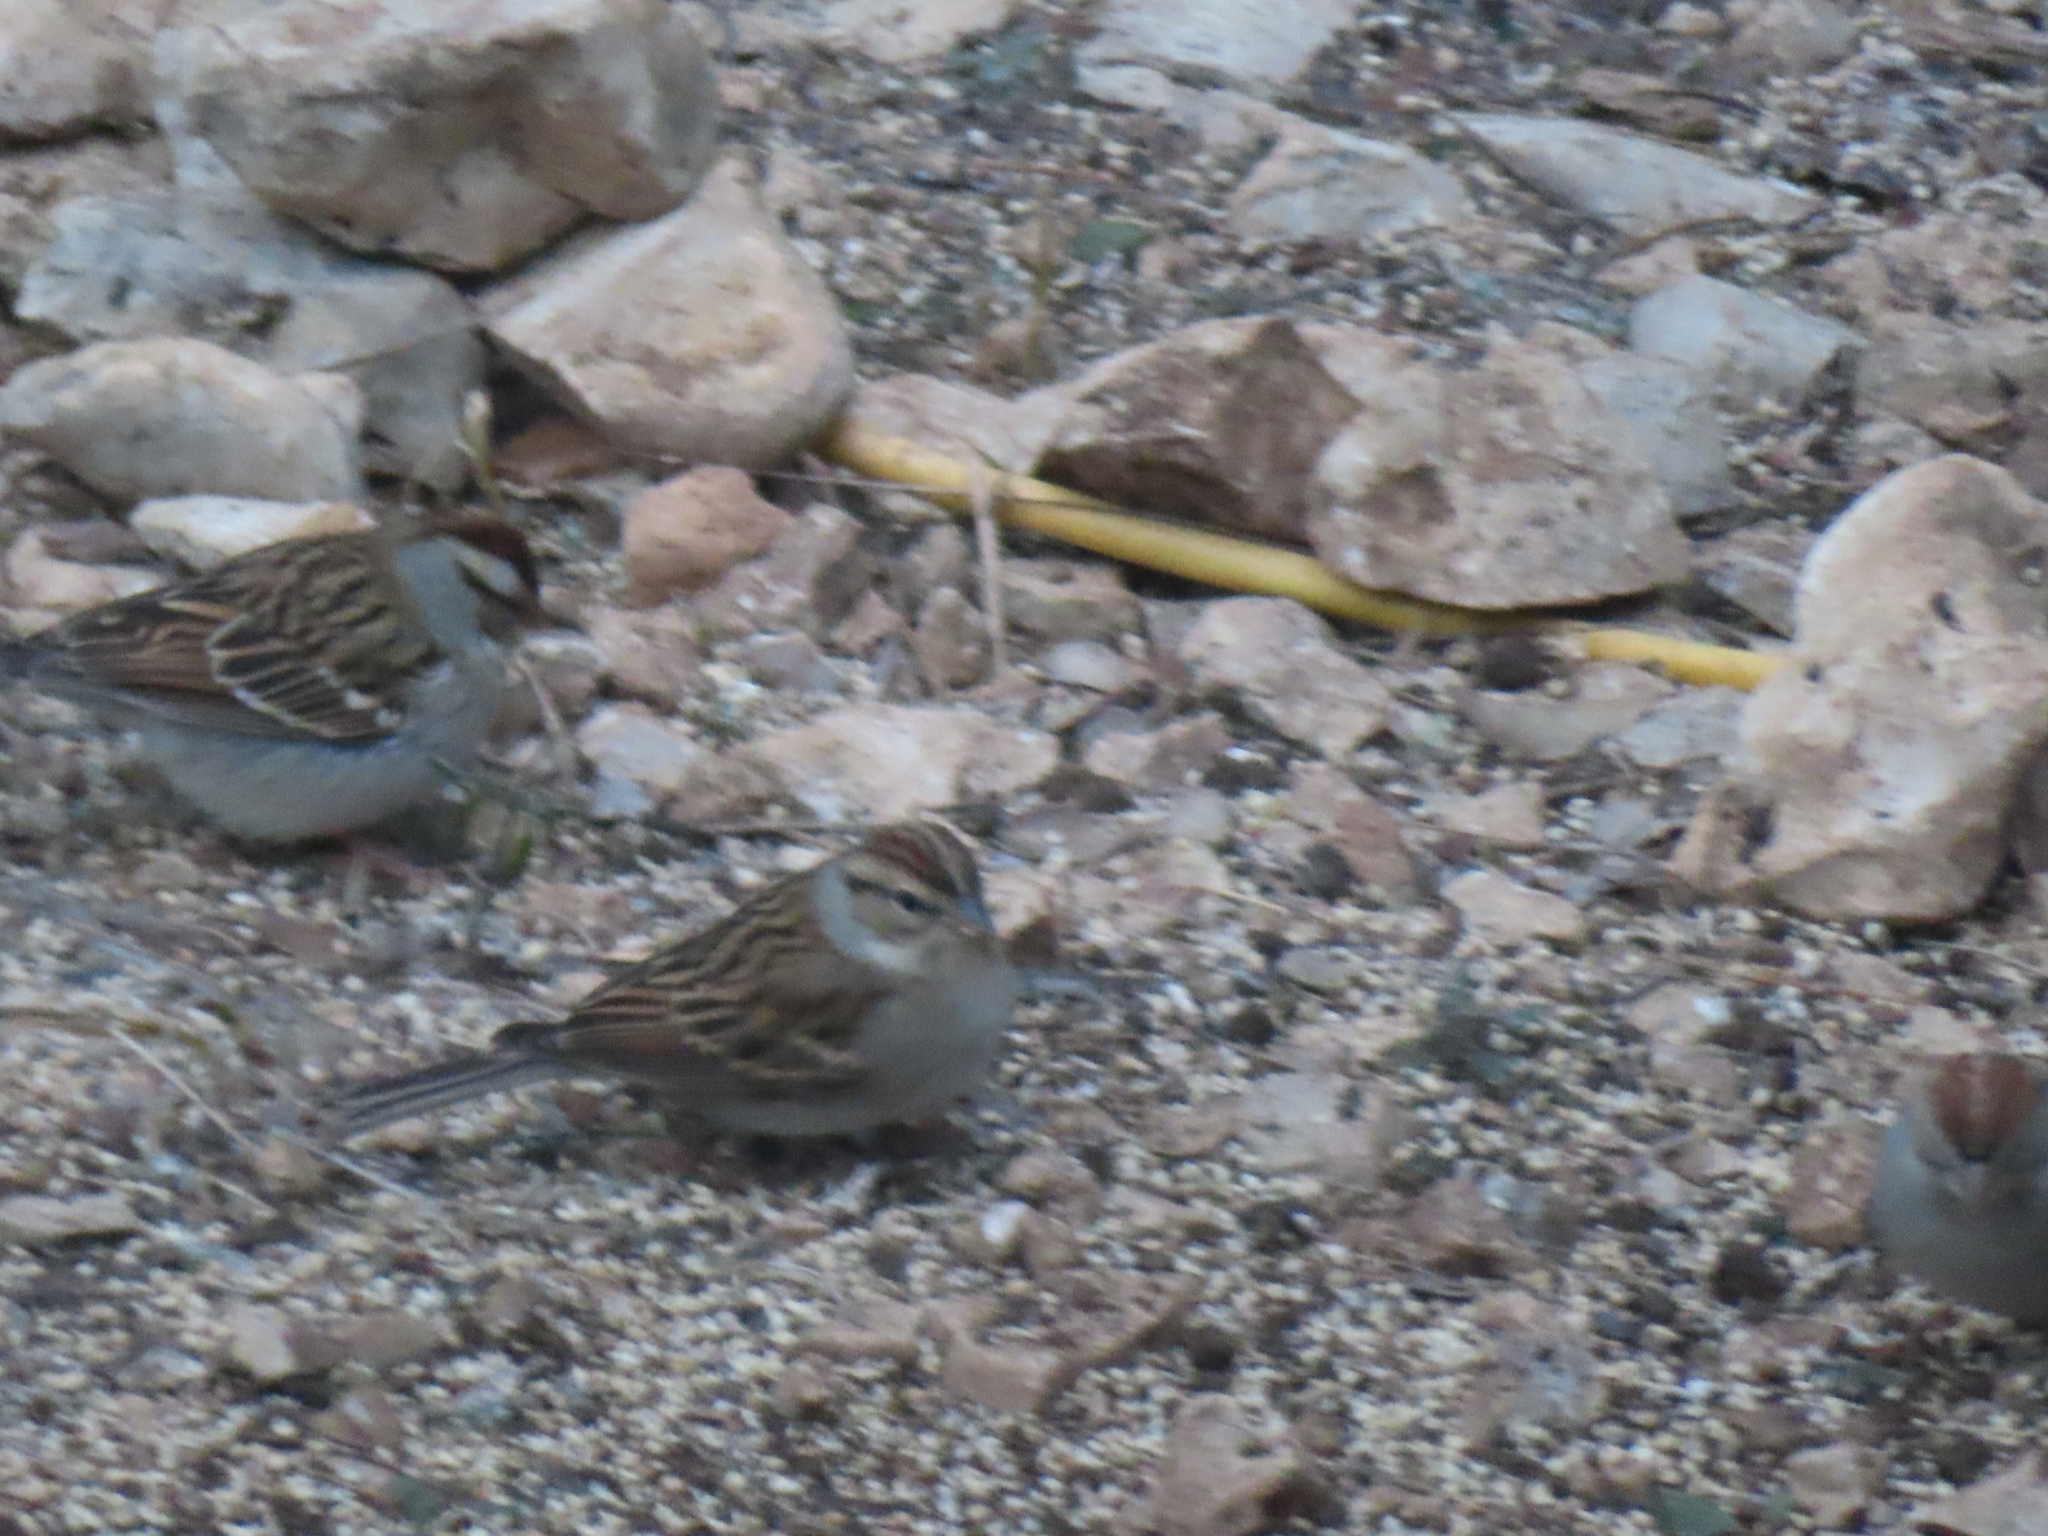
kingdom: Animalia
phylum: Chordata
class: Aves
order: Passeriformes
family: Passerellidae
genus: Spizella
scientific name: Spizella passerina
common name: Chipping sparrow
